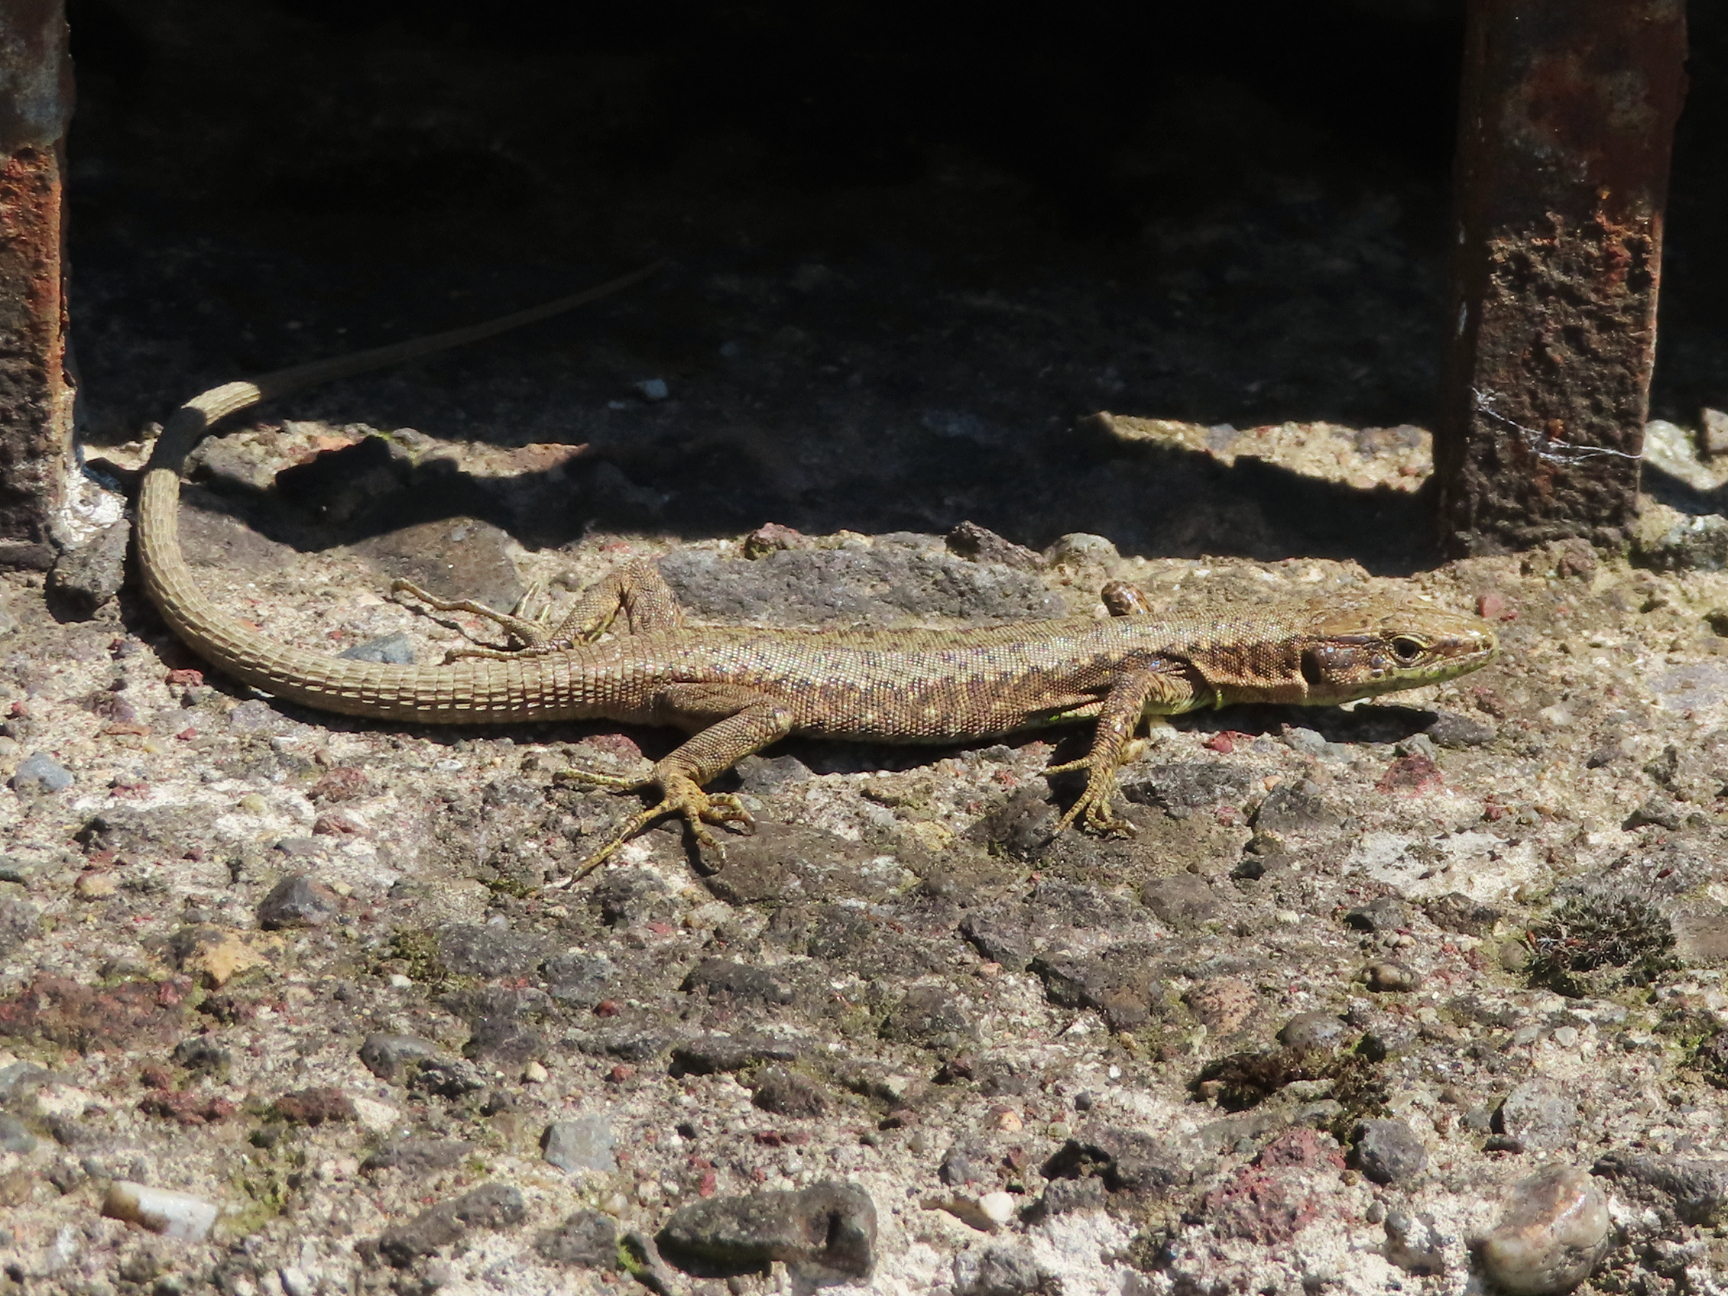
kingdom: Animalia
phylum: Chordata
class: Squamata
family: Lacertidae
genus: Darevskia
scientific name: Darevskia mixta
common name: Ajarian lizard
